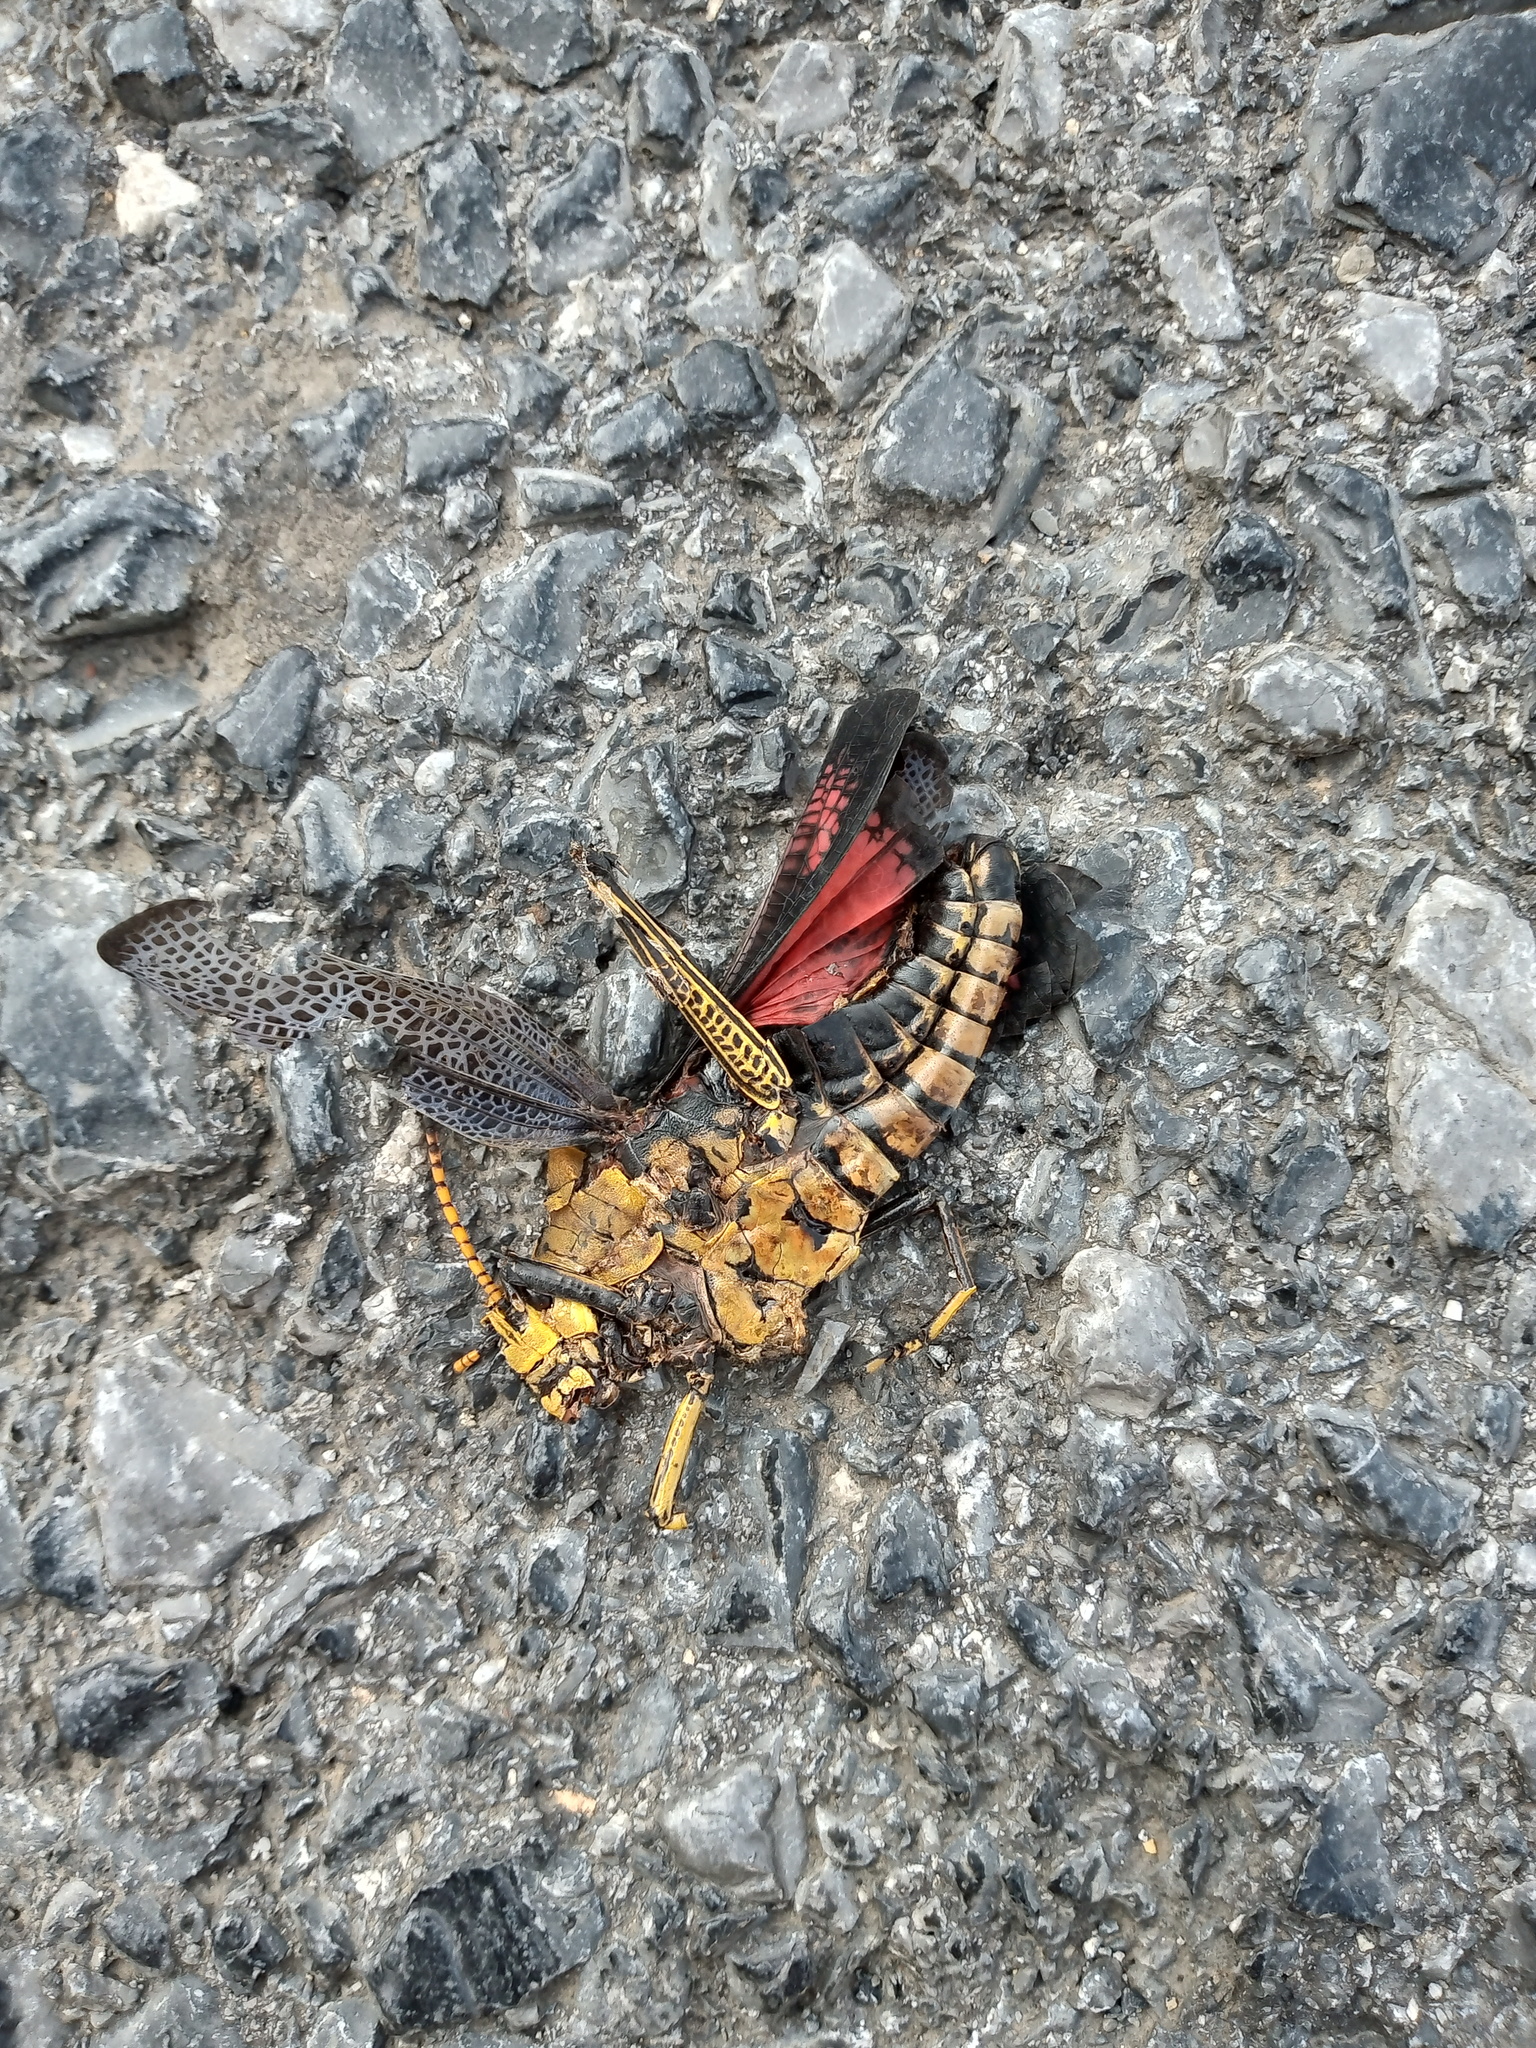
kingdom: Animalia
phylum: Arthropoda
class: Insecta
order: Orthoptera
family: Romaleidae
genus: Romalea
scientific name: Romalea
